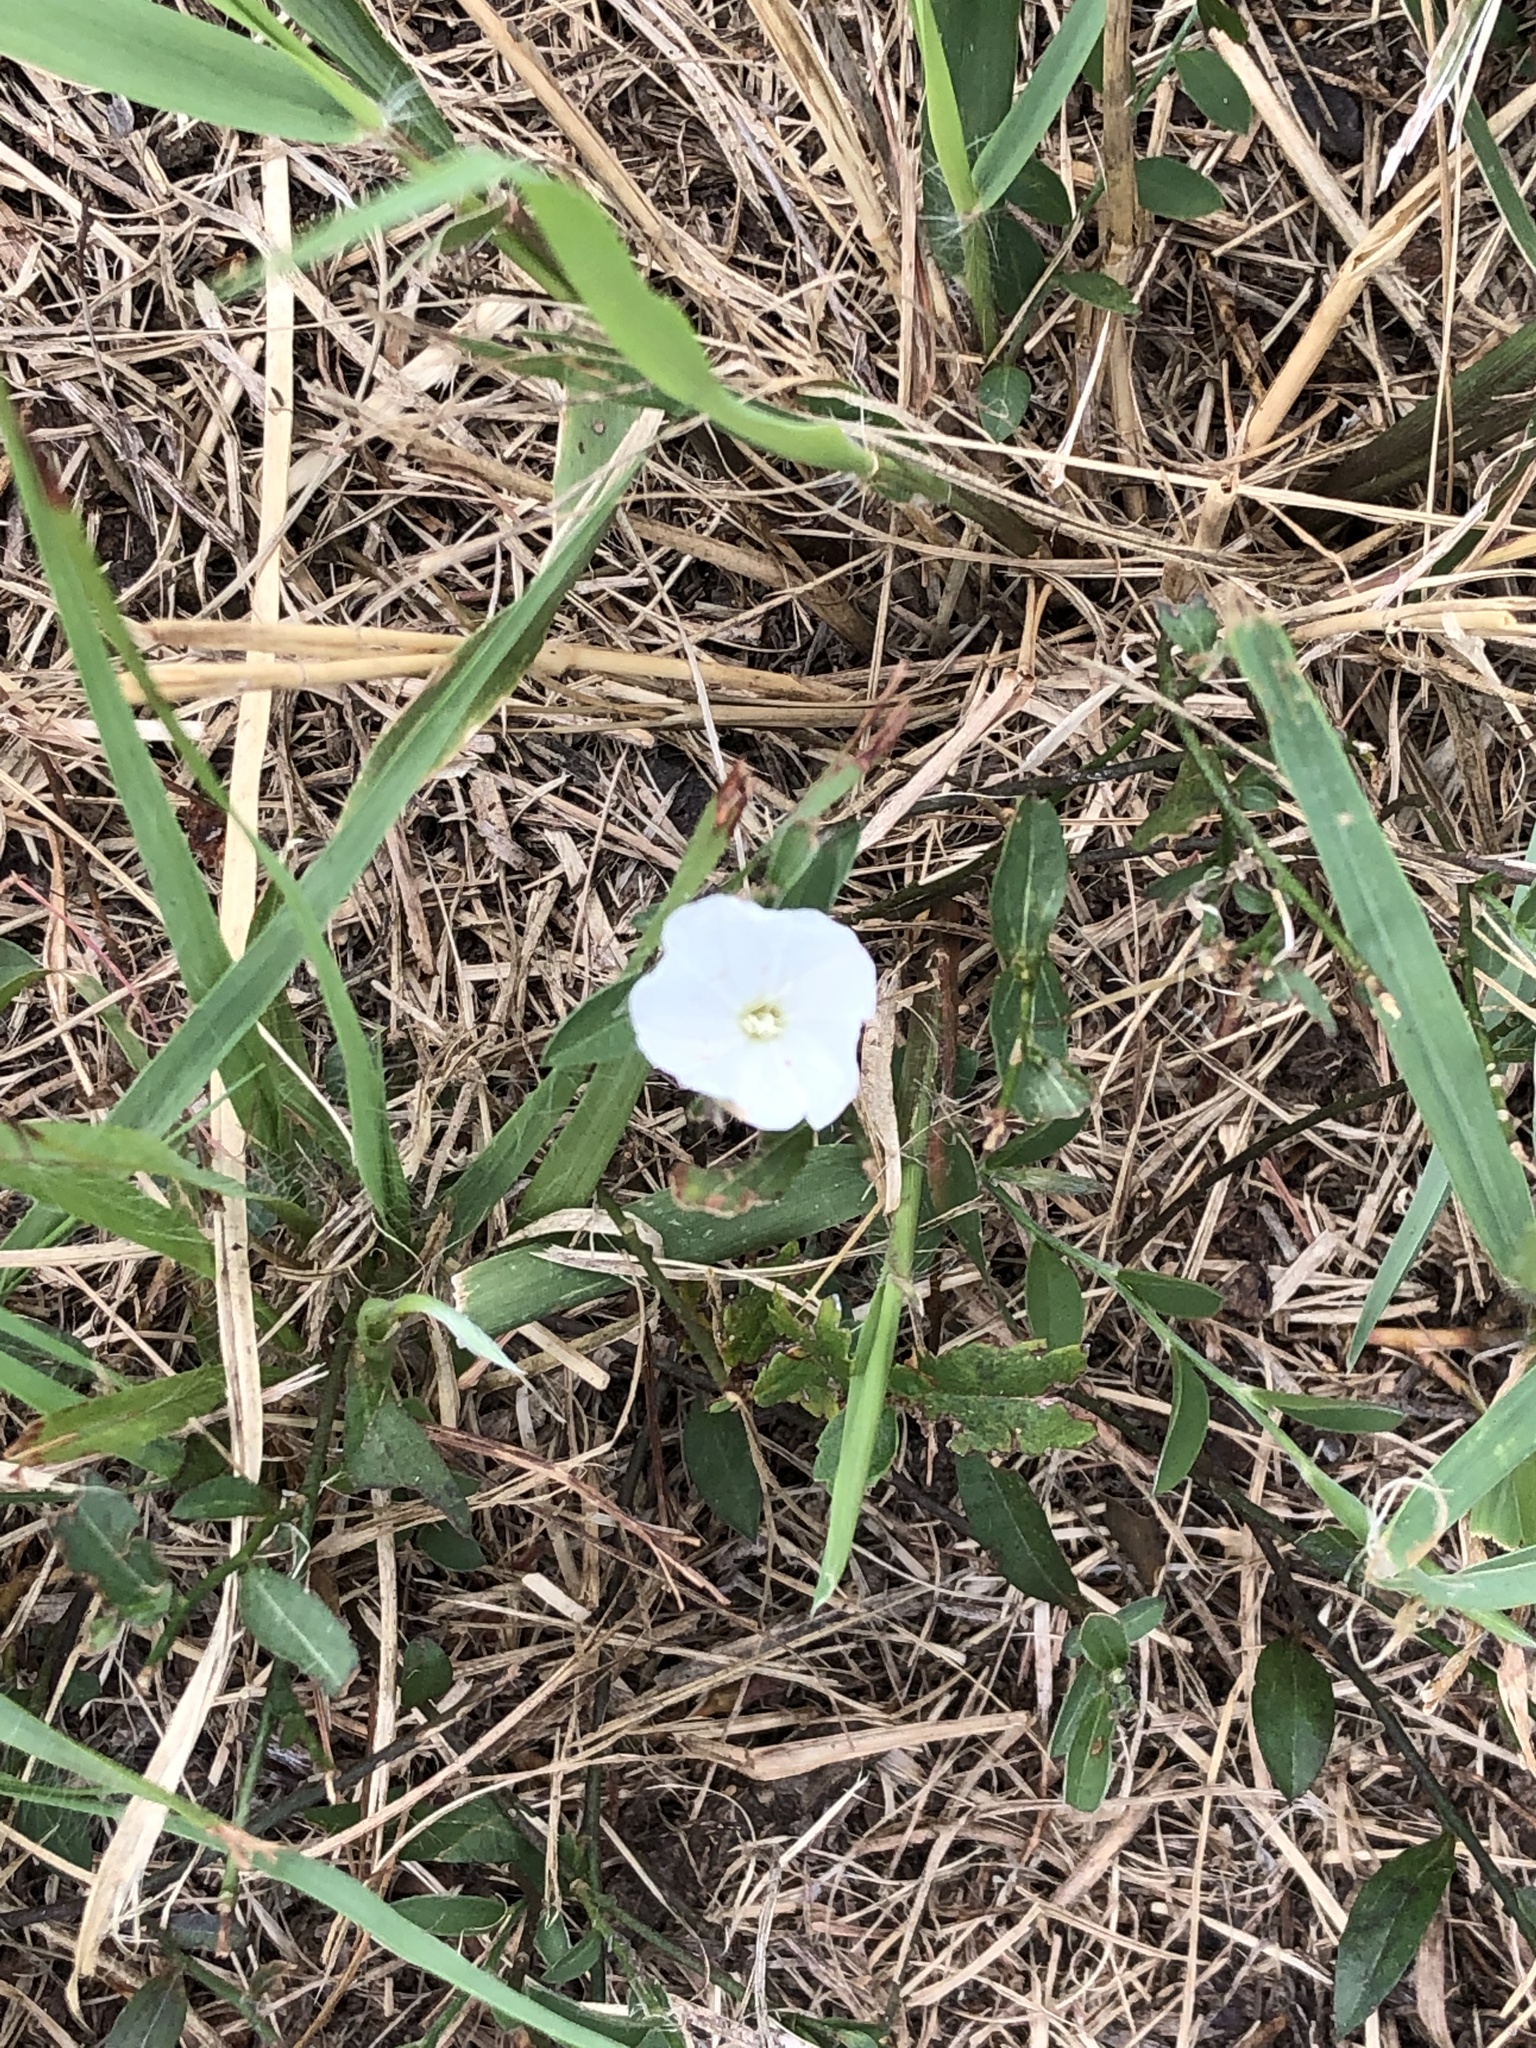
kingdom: Plantae
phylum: Tracheophyta
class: Magnoliopsida
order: Solanales
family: Convolvulaceae
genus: Evolvulus
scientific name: Evolvulus sericeus
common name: Blue dots
